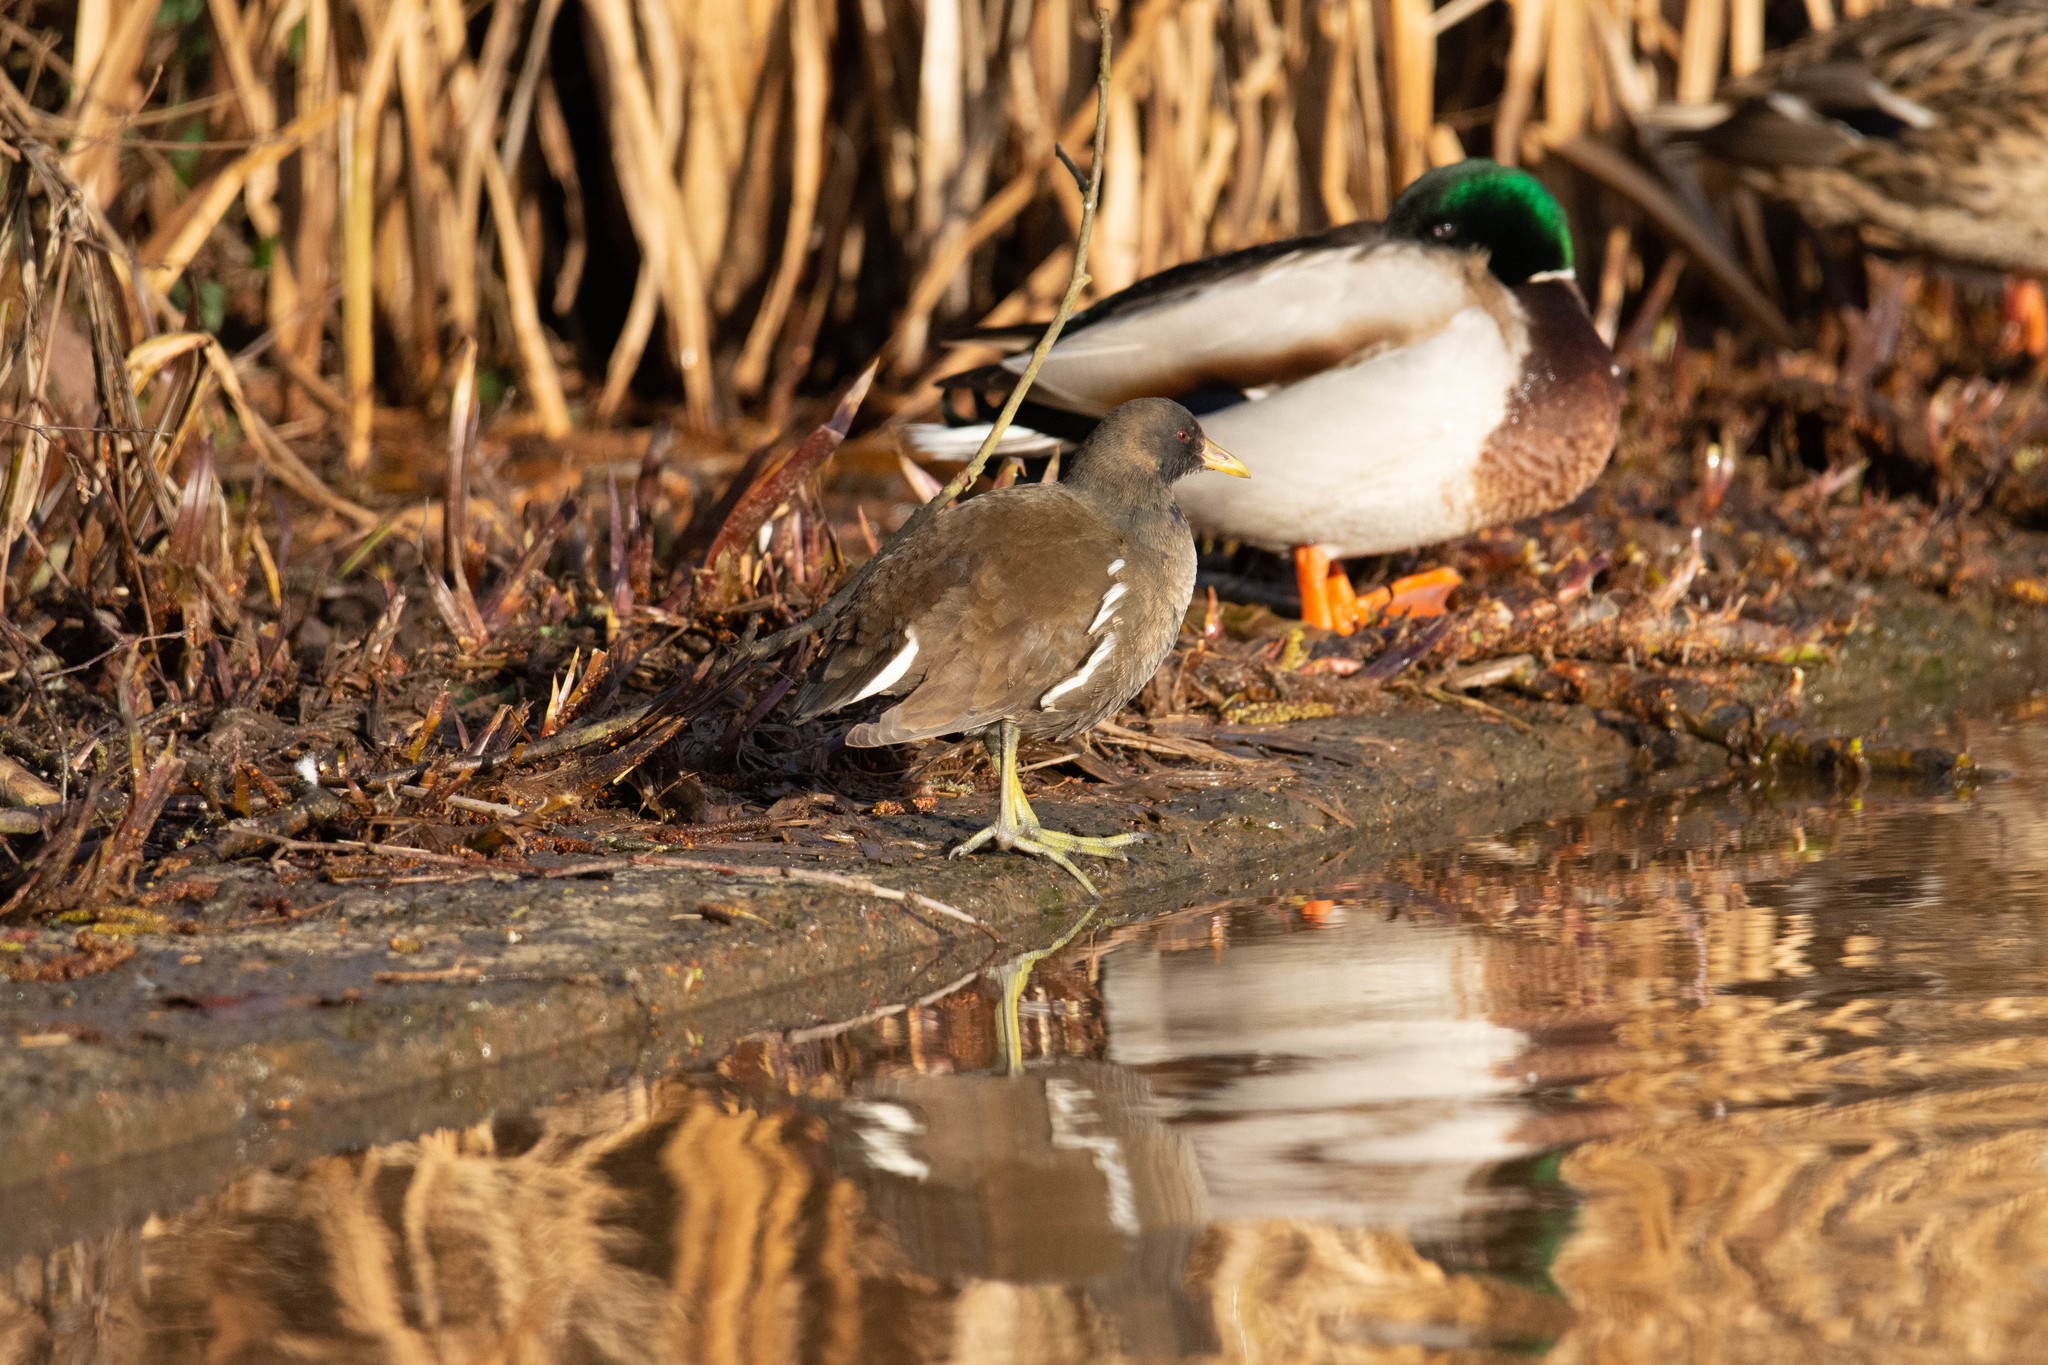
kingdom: Animalia
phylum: Chordata
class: Aves
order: Gruiformes
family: Rallidae
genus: Gallinula
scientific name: Gallinula chloropus
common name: Common moorhen
